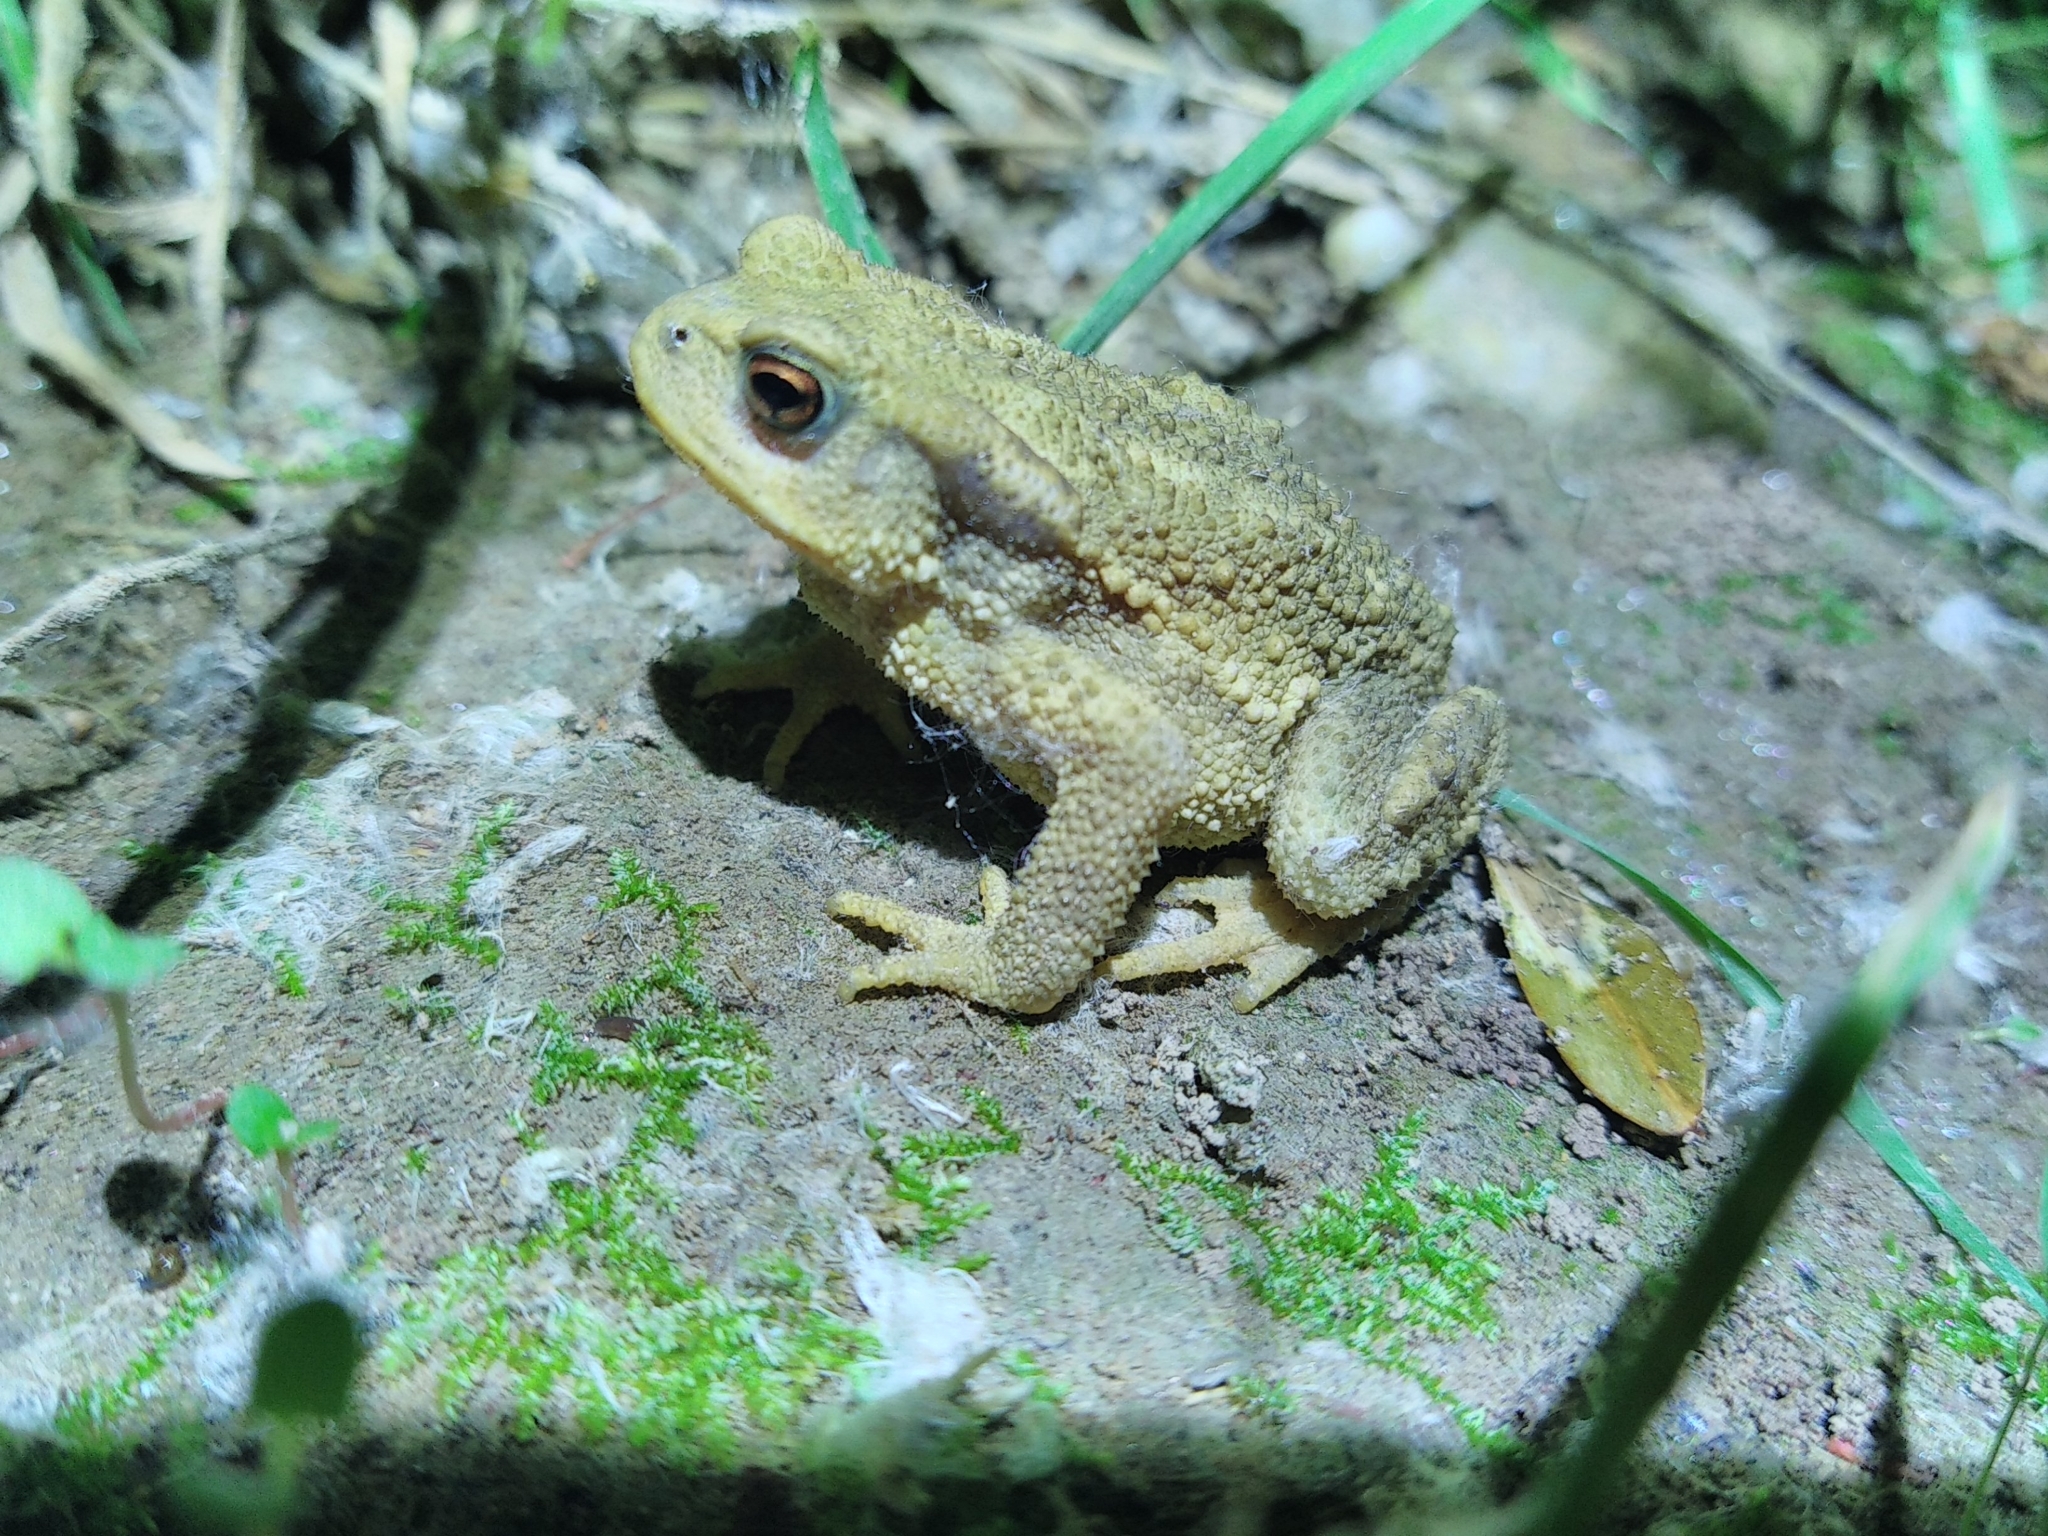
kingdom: Animalia
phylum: Chordata
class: Amphibia
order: Anura
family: Bufonidae
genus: Bufo
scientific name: Bufo spinosus
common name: Western common toad
